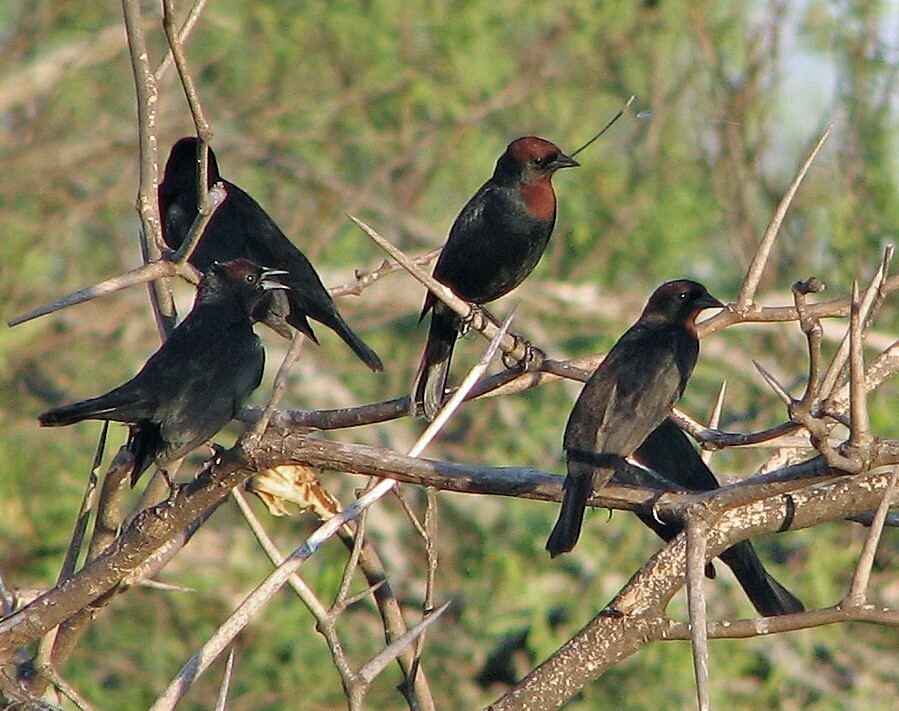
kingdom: Animalia
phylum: Chordata
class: Aves
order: Passeriformes
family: Icteridae
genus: Chrysomus
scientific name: Chrysomus ruficapillus
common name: Chestnut-capped blackbird
